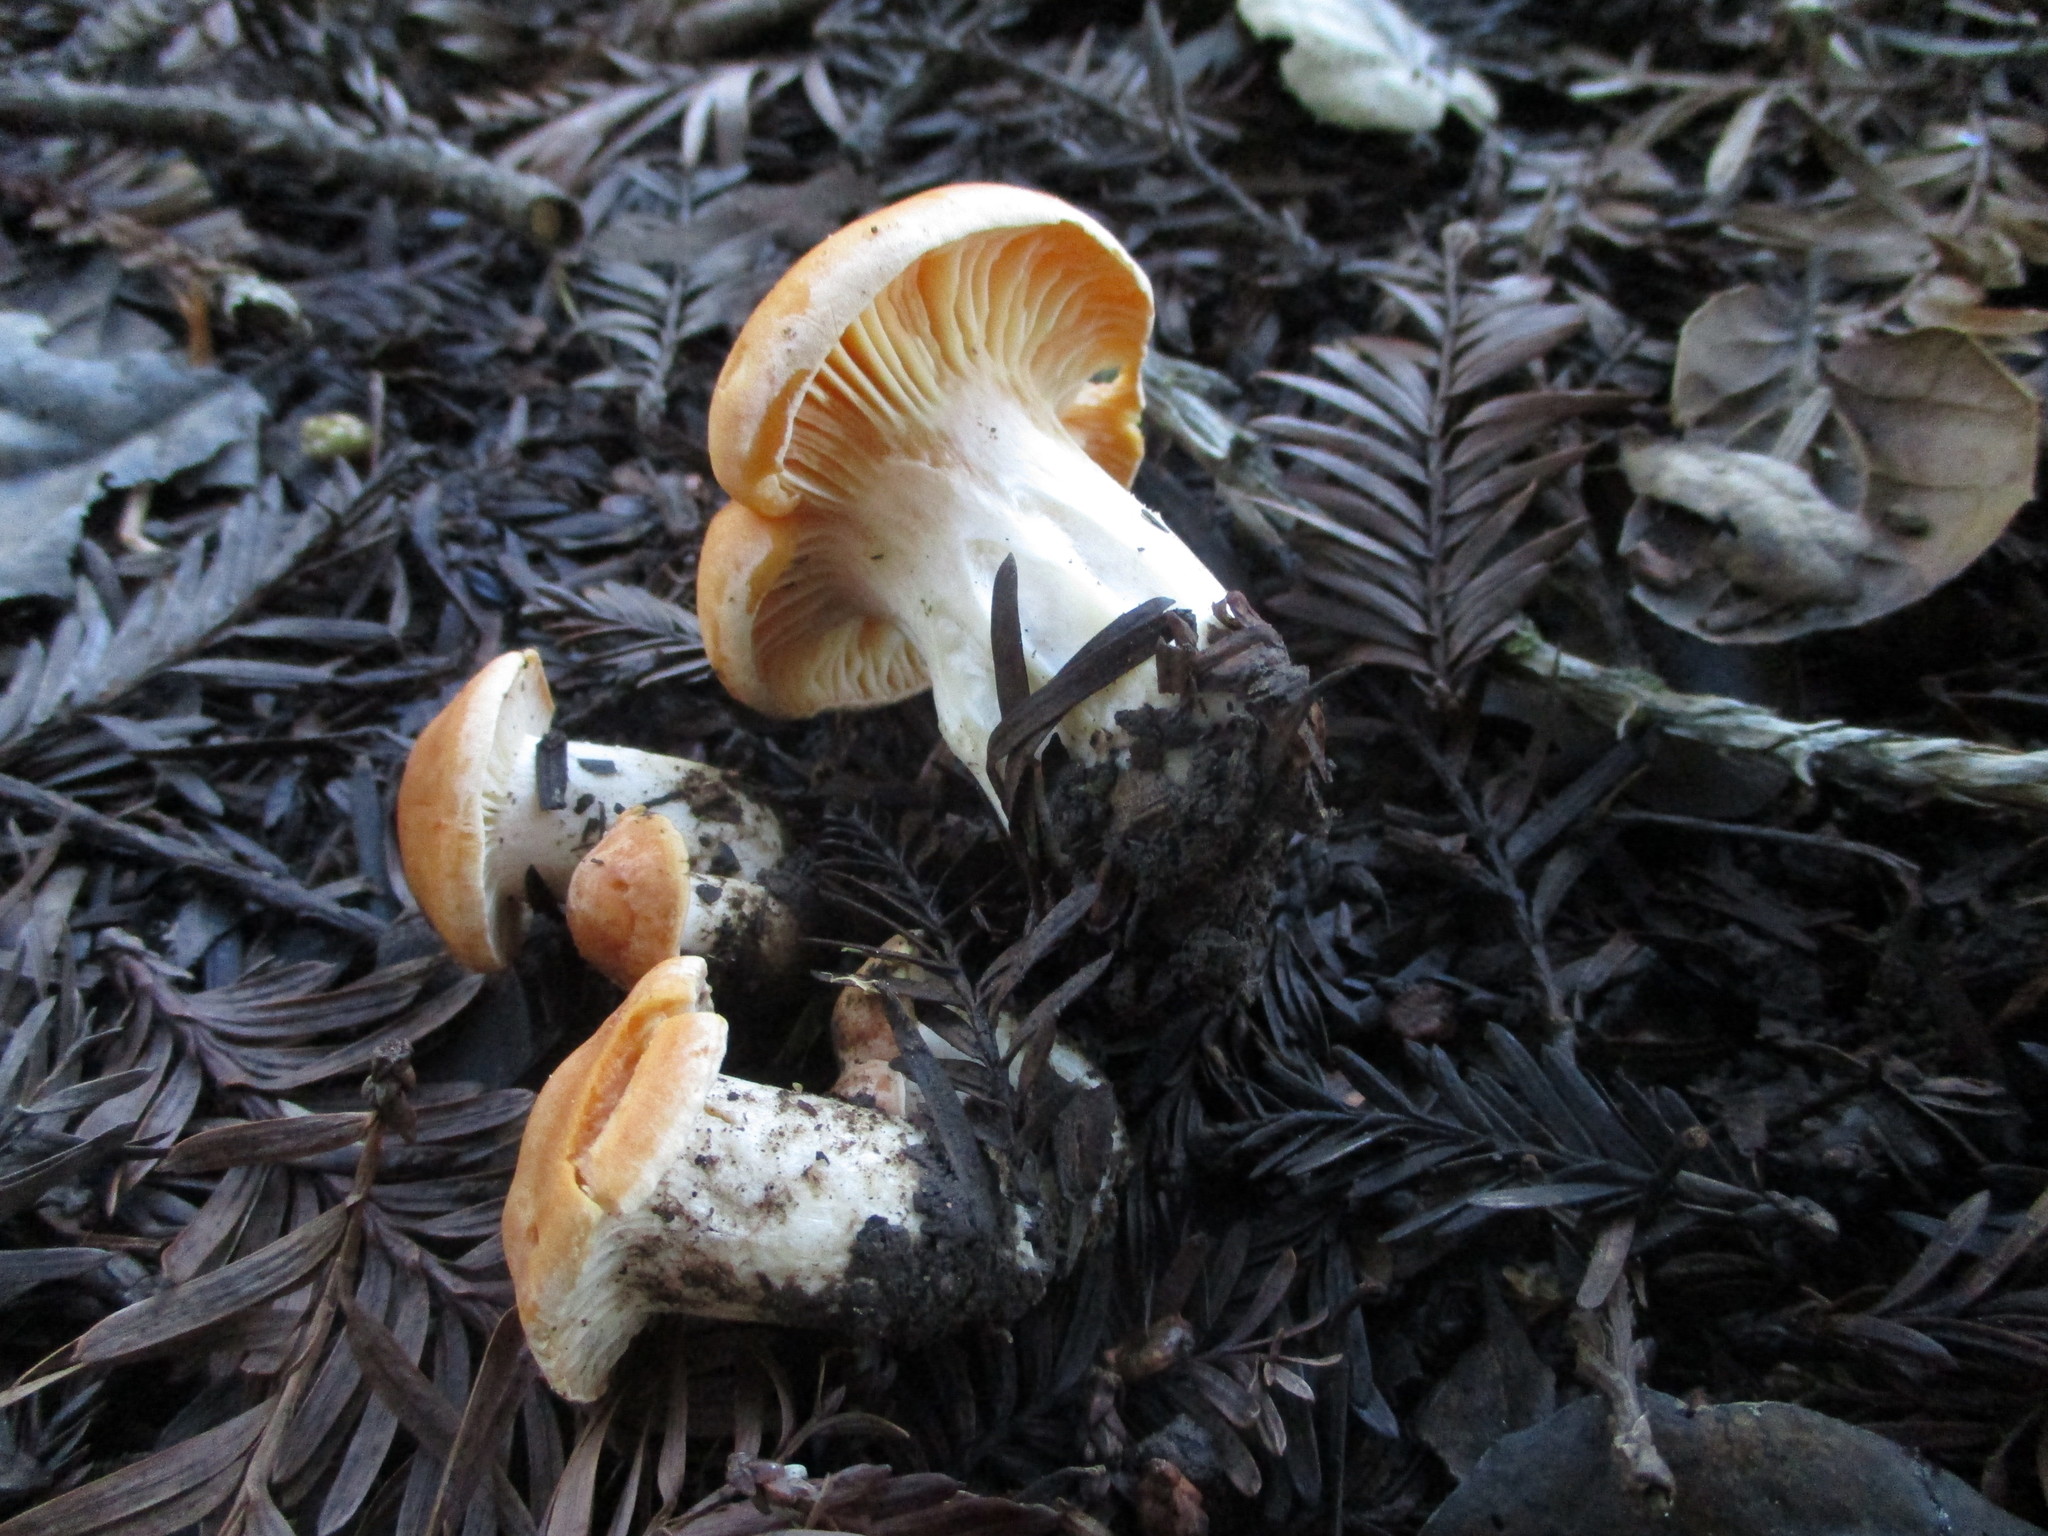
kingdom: Fungi
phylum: Basidiomycota
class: Agaricomycetes
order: Agaricales
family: Hygrophoraceae
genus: Cuphophyllus
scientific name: Cuphophyllus pratensis
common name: Meadow waxcap
